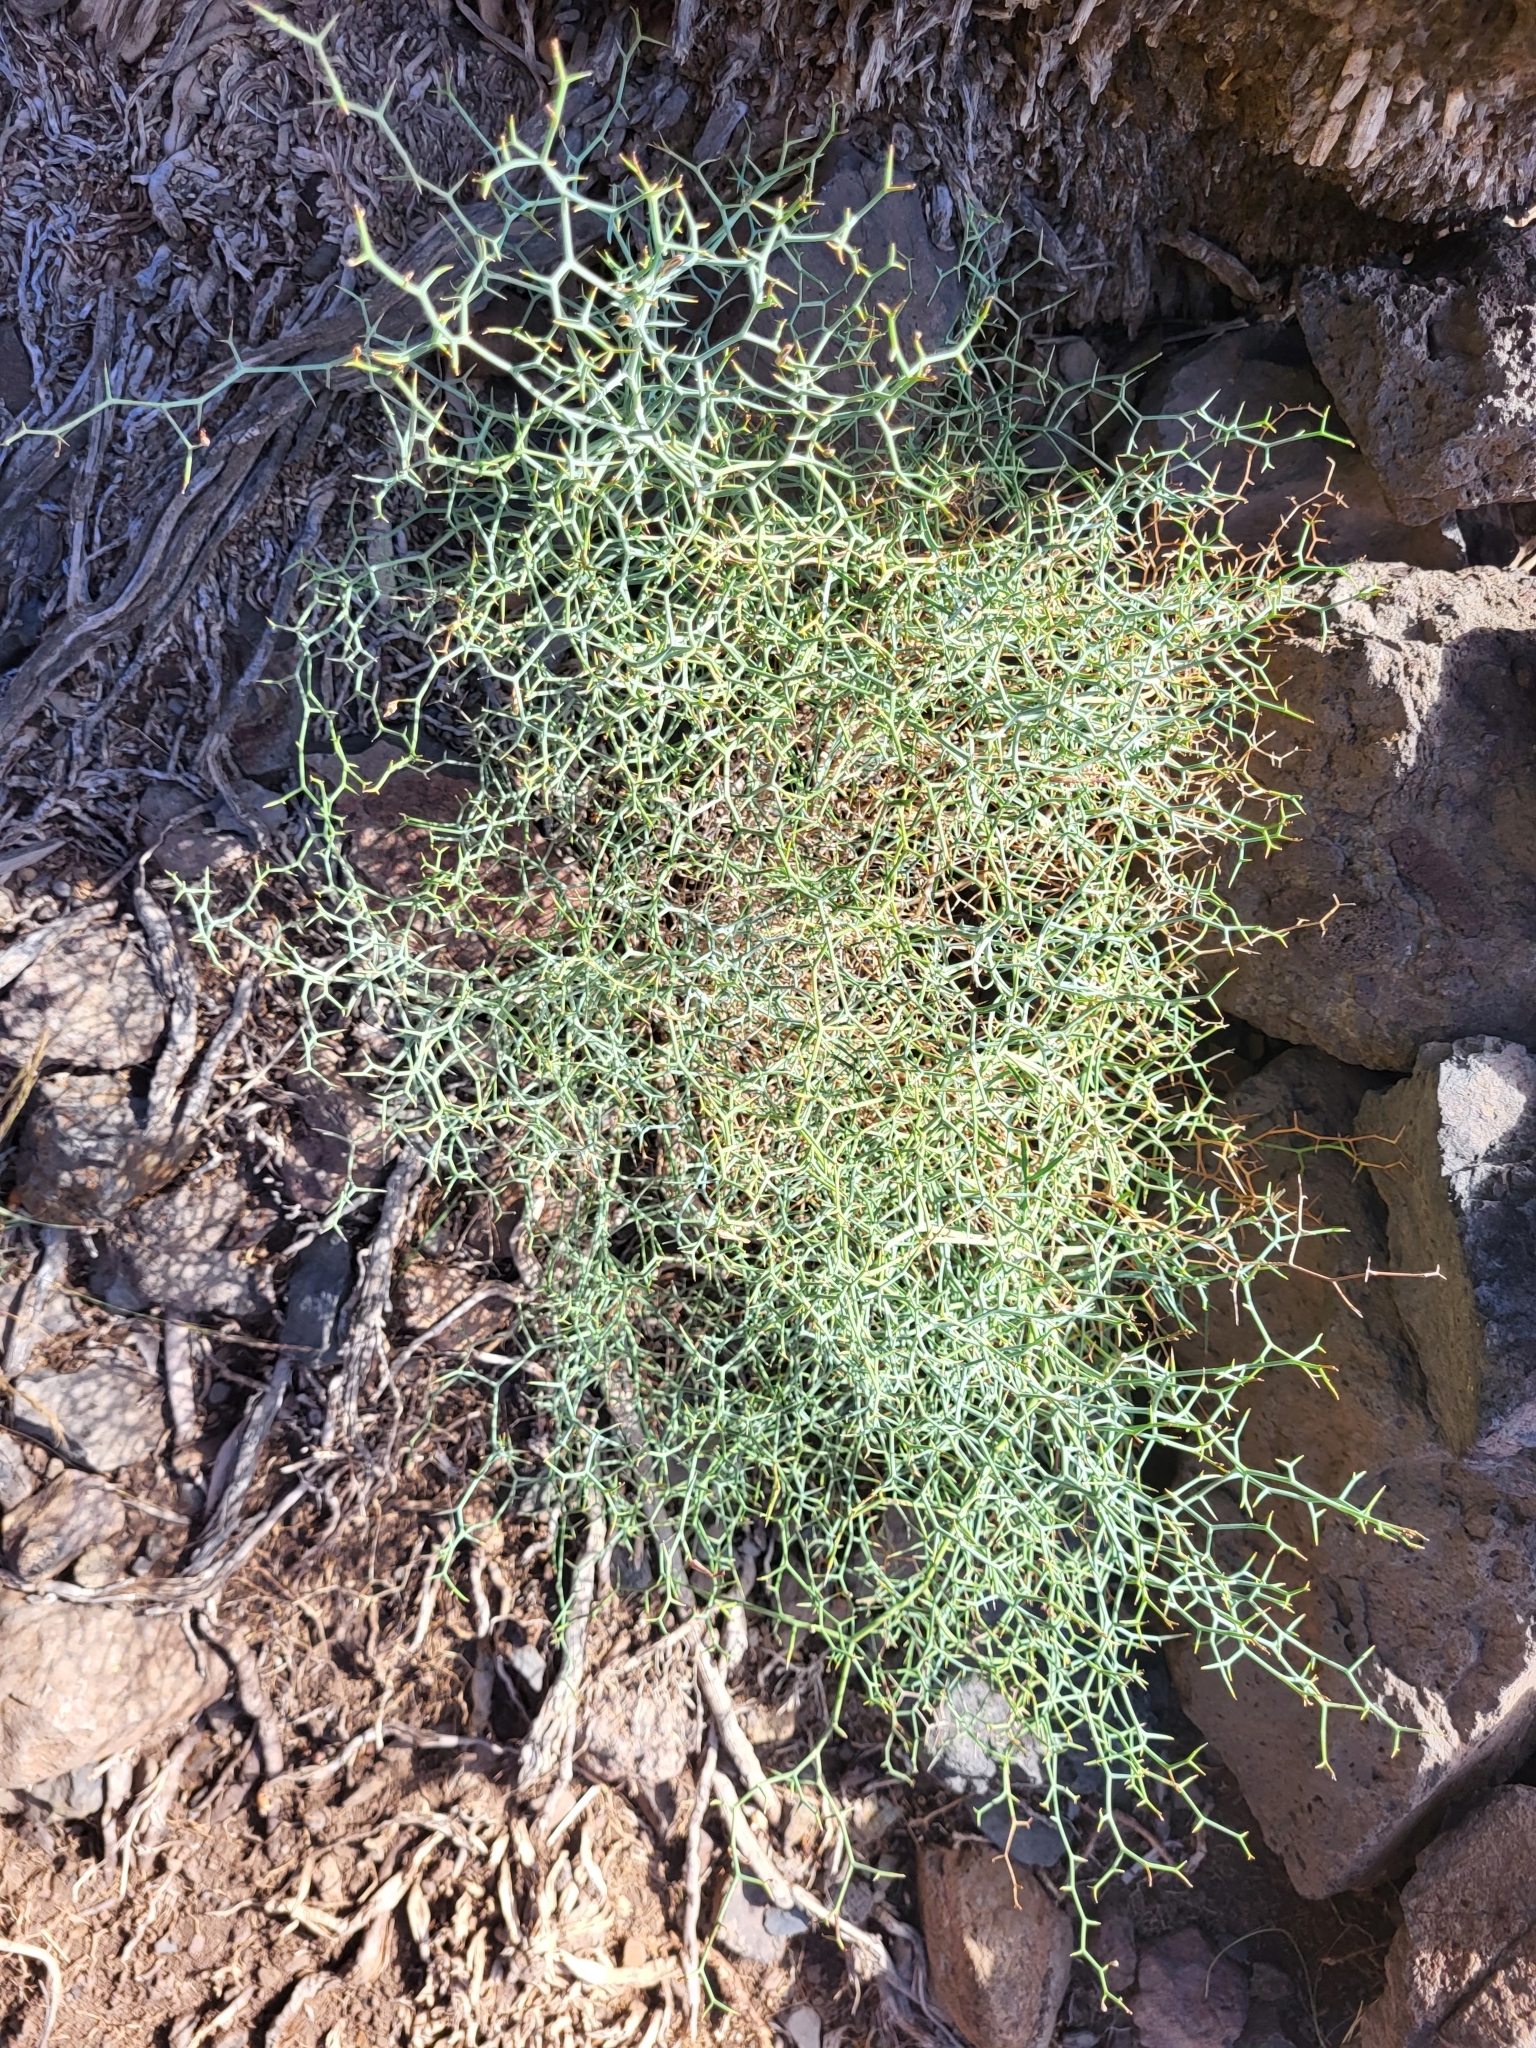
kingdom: Plantae
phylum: Tracheophyta
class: Magnoliopsida
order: Asterales
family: Asteraceae
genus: Launaea
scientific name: Launaea arborescens
